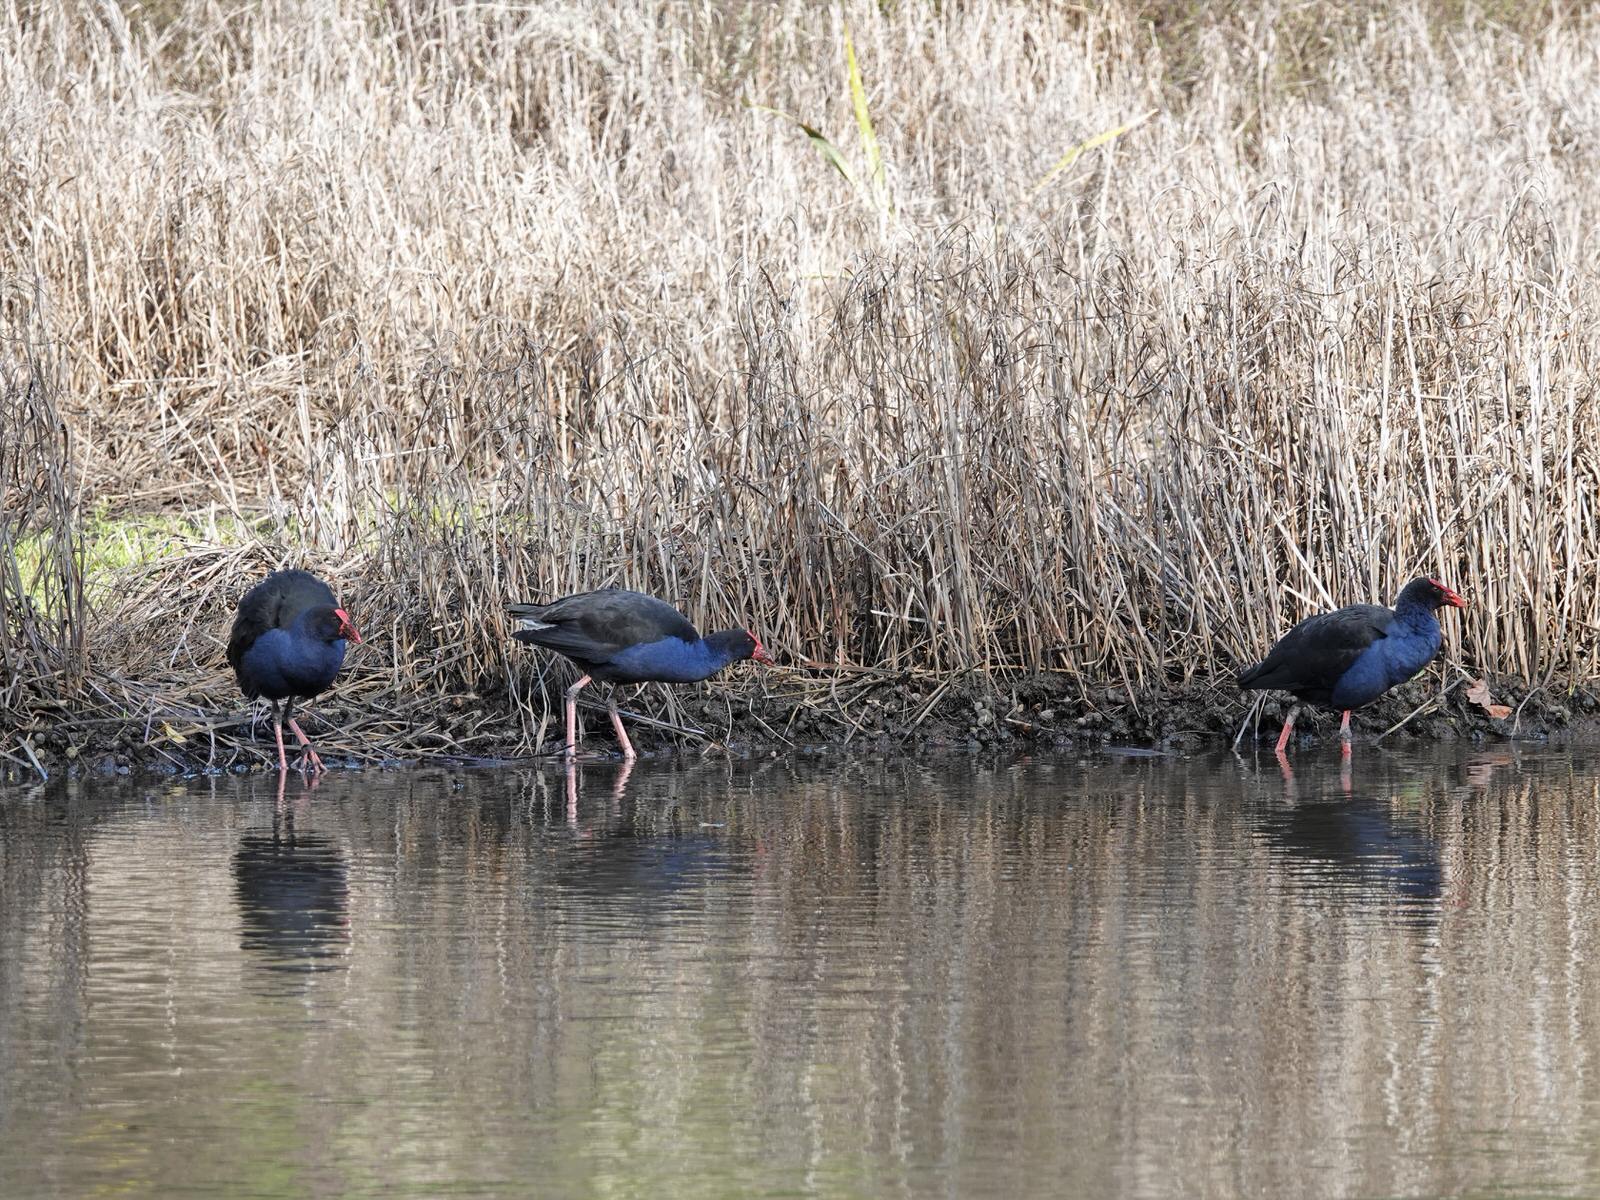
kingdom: Animalia
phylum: Chordata
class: Aves
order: Gruiformes
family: Rallidae
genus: Porphyrio
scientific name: Porphyrio melanotus
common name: Australasian swamphen
